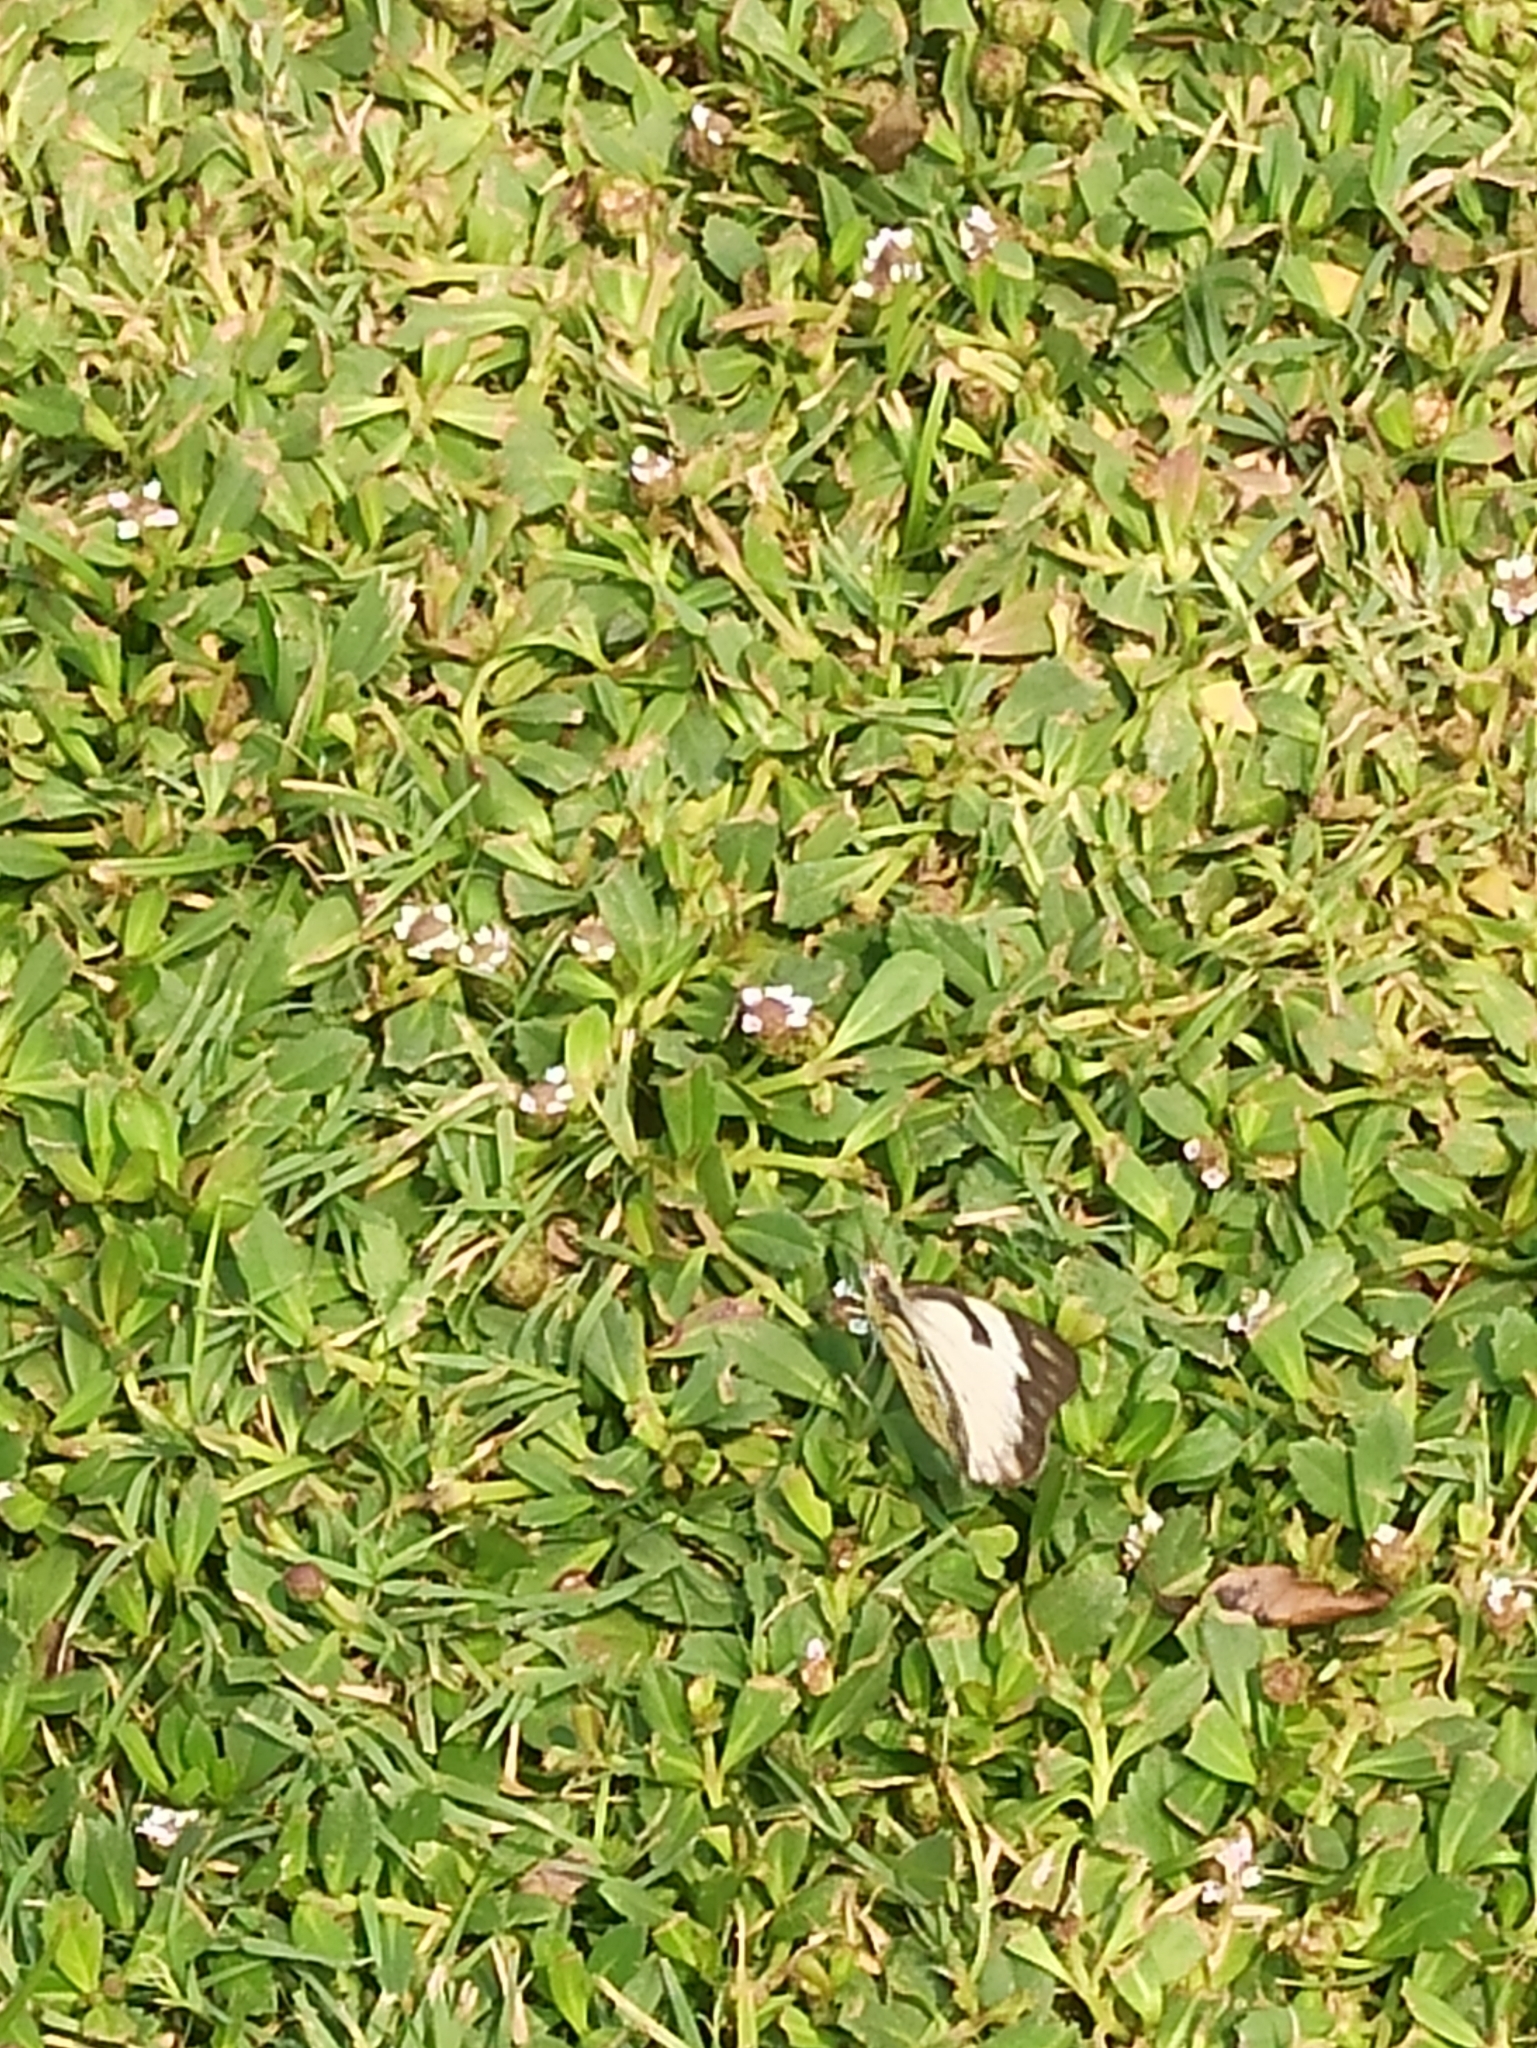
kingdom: Animalia
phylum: Arthropoda
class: Insecta
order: Lepidoptera
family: Pieridae
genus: Belenois
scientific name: Belenois aurota
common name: Brown-veined white
